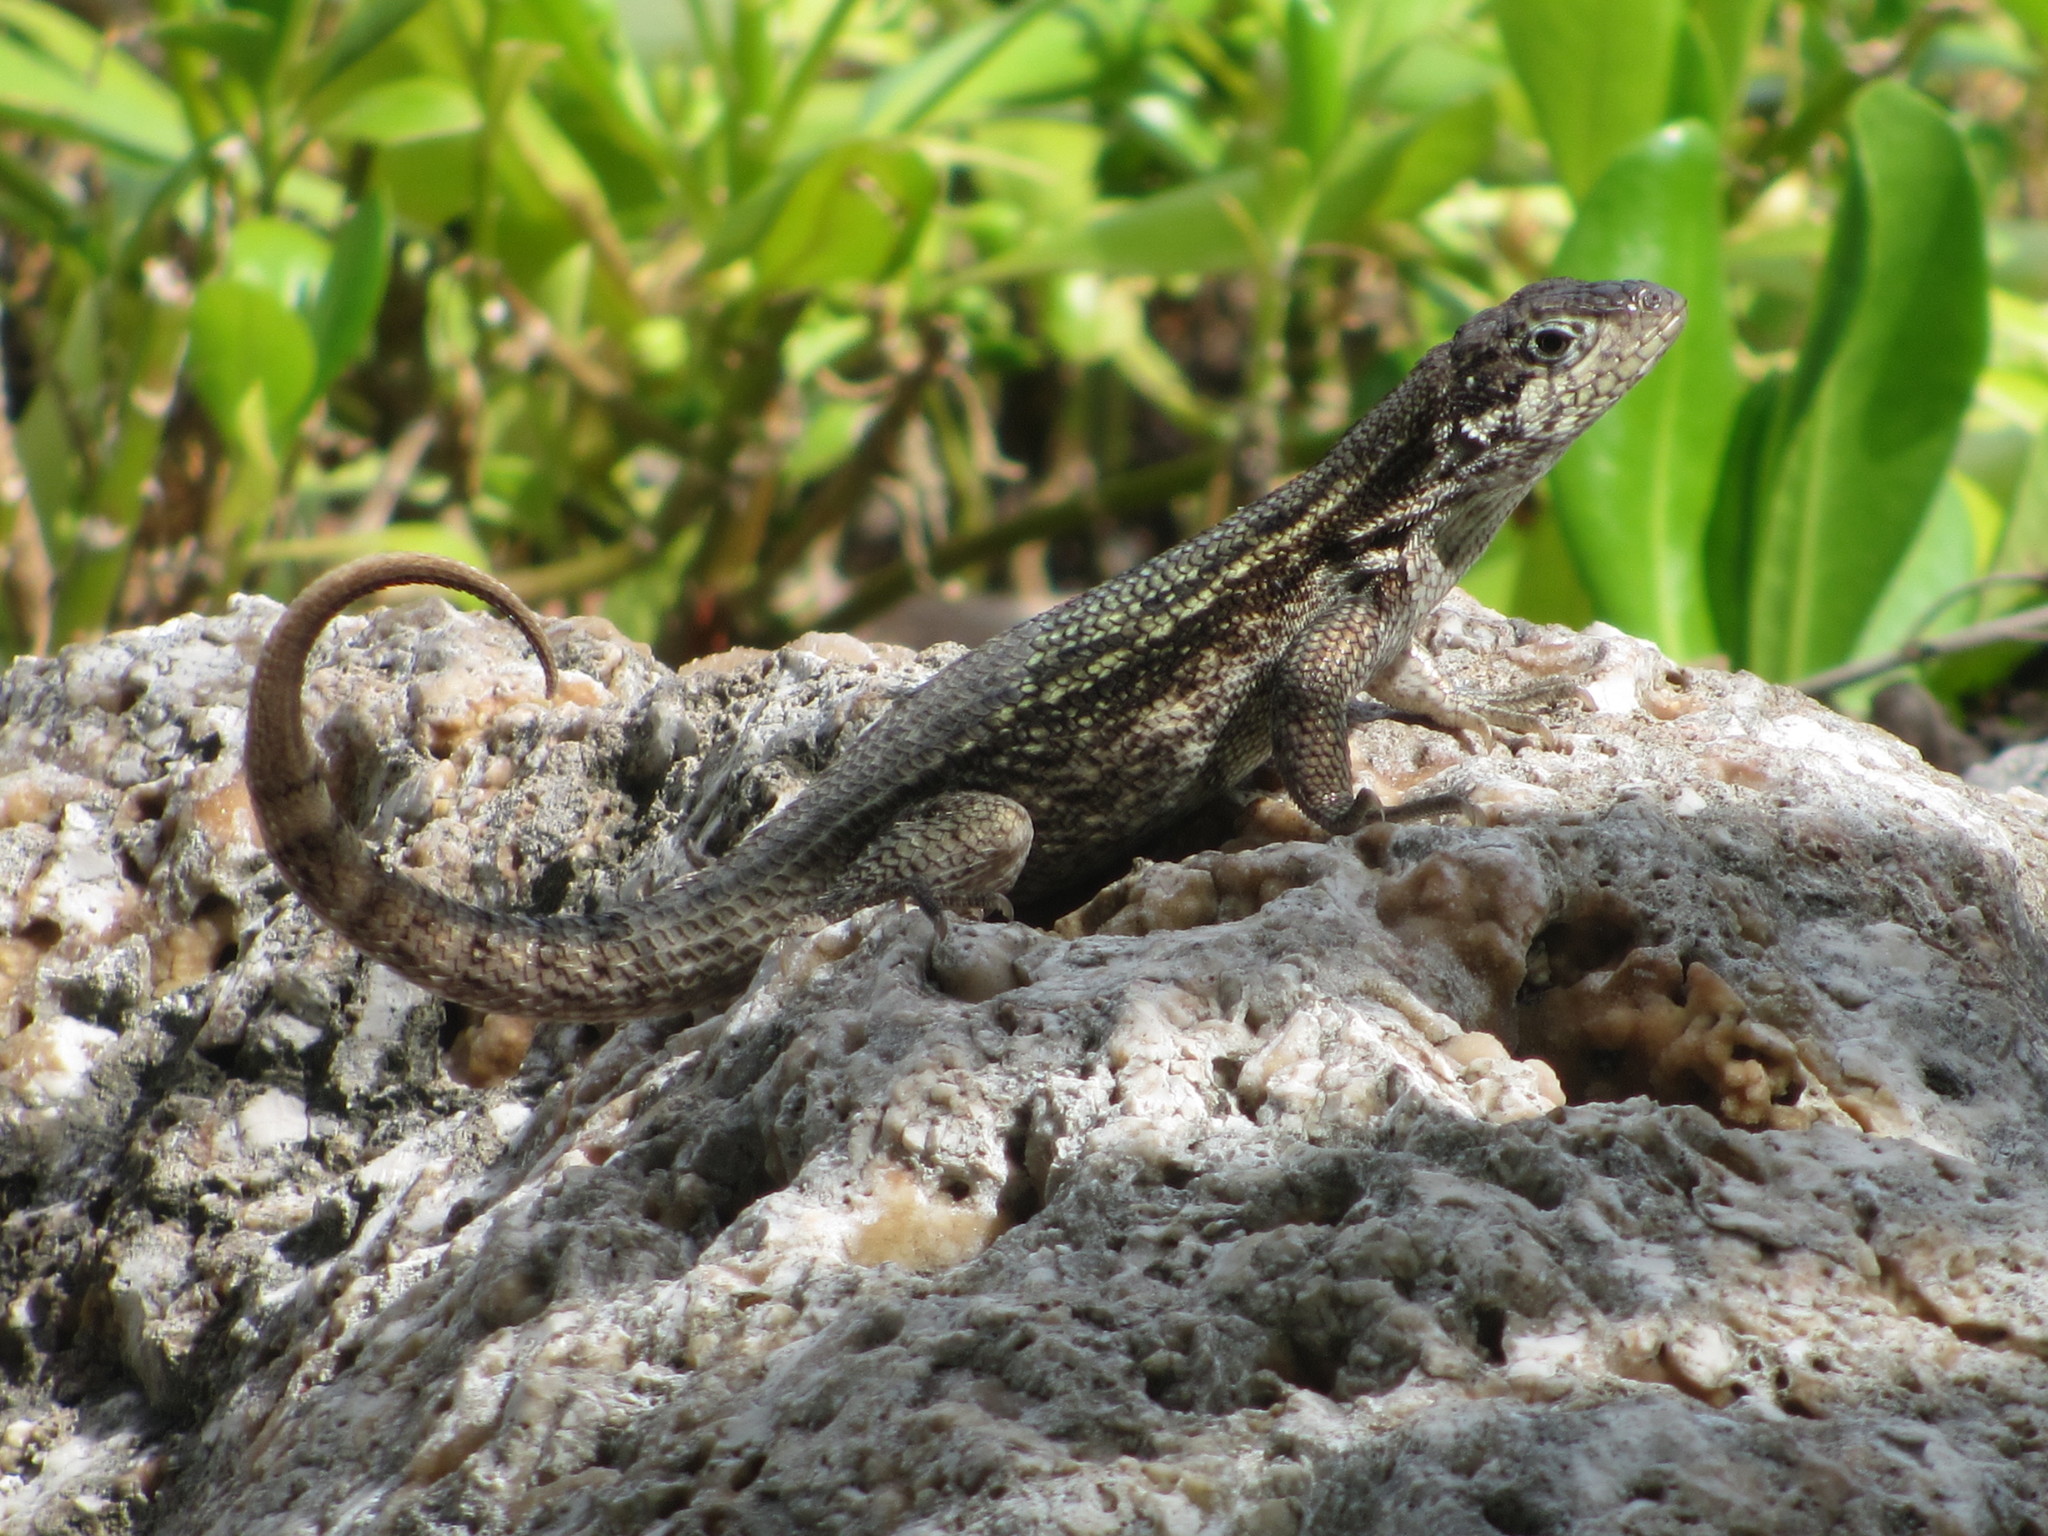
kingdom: Animalia
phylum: Chordata
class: Squamata
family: Leiocephalidae
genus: Leiocephalus
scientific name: Leiocephalus carinatus
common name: Northern curly-tailed lizard
